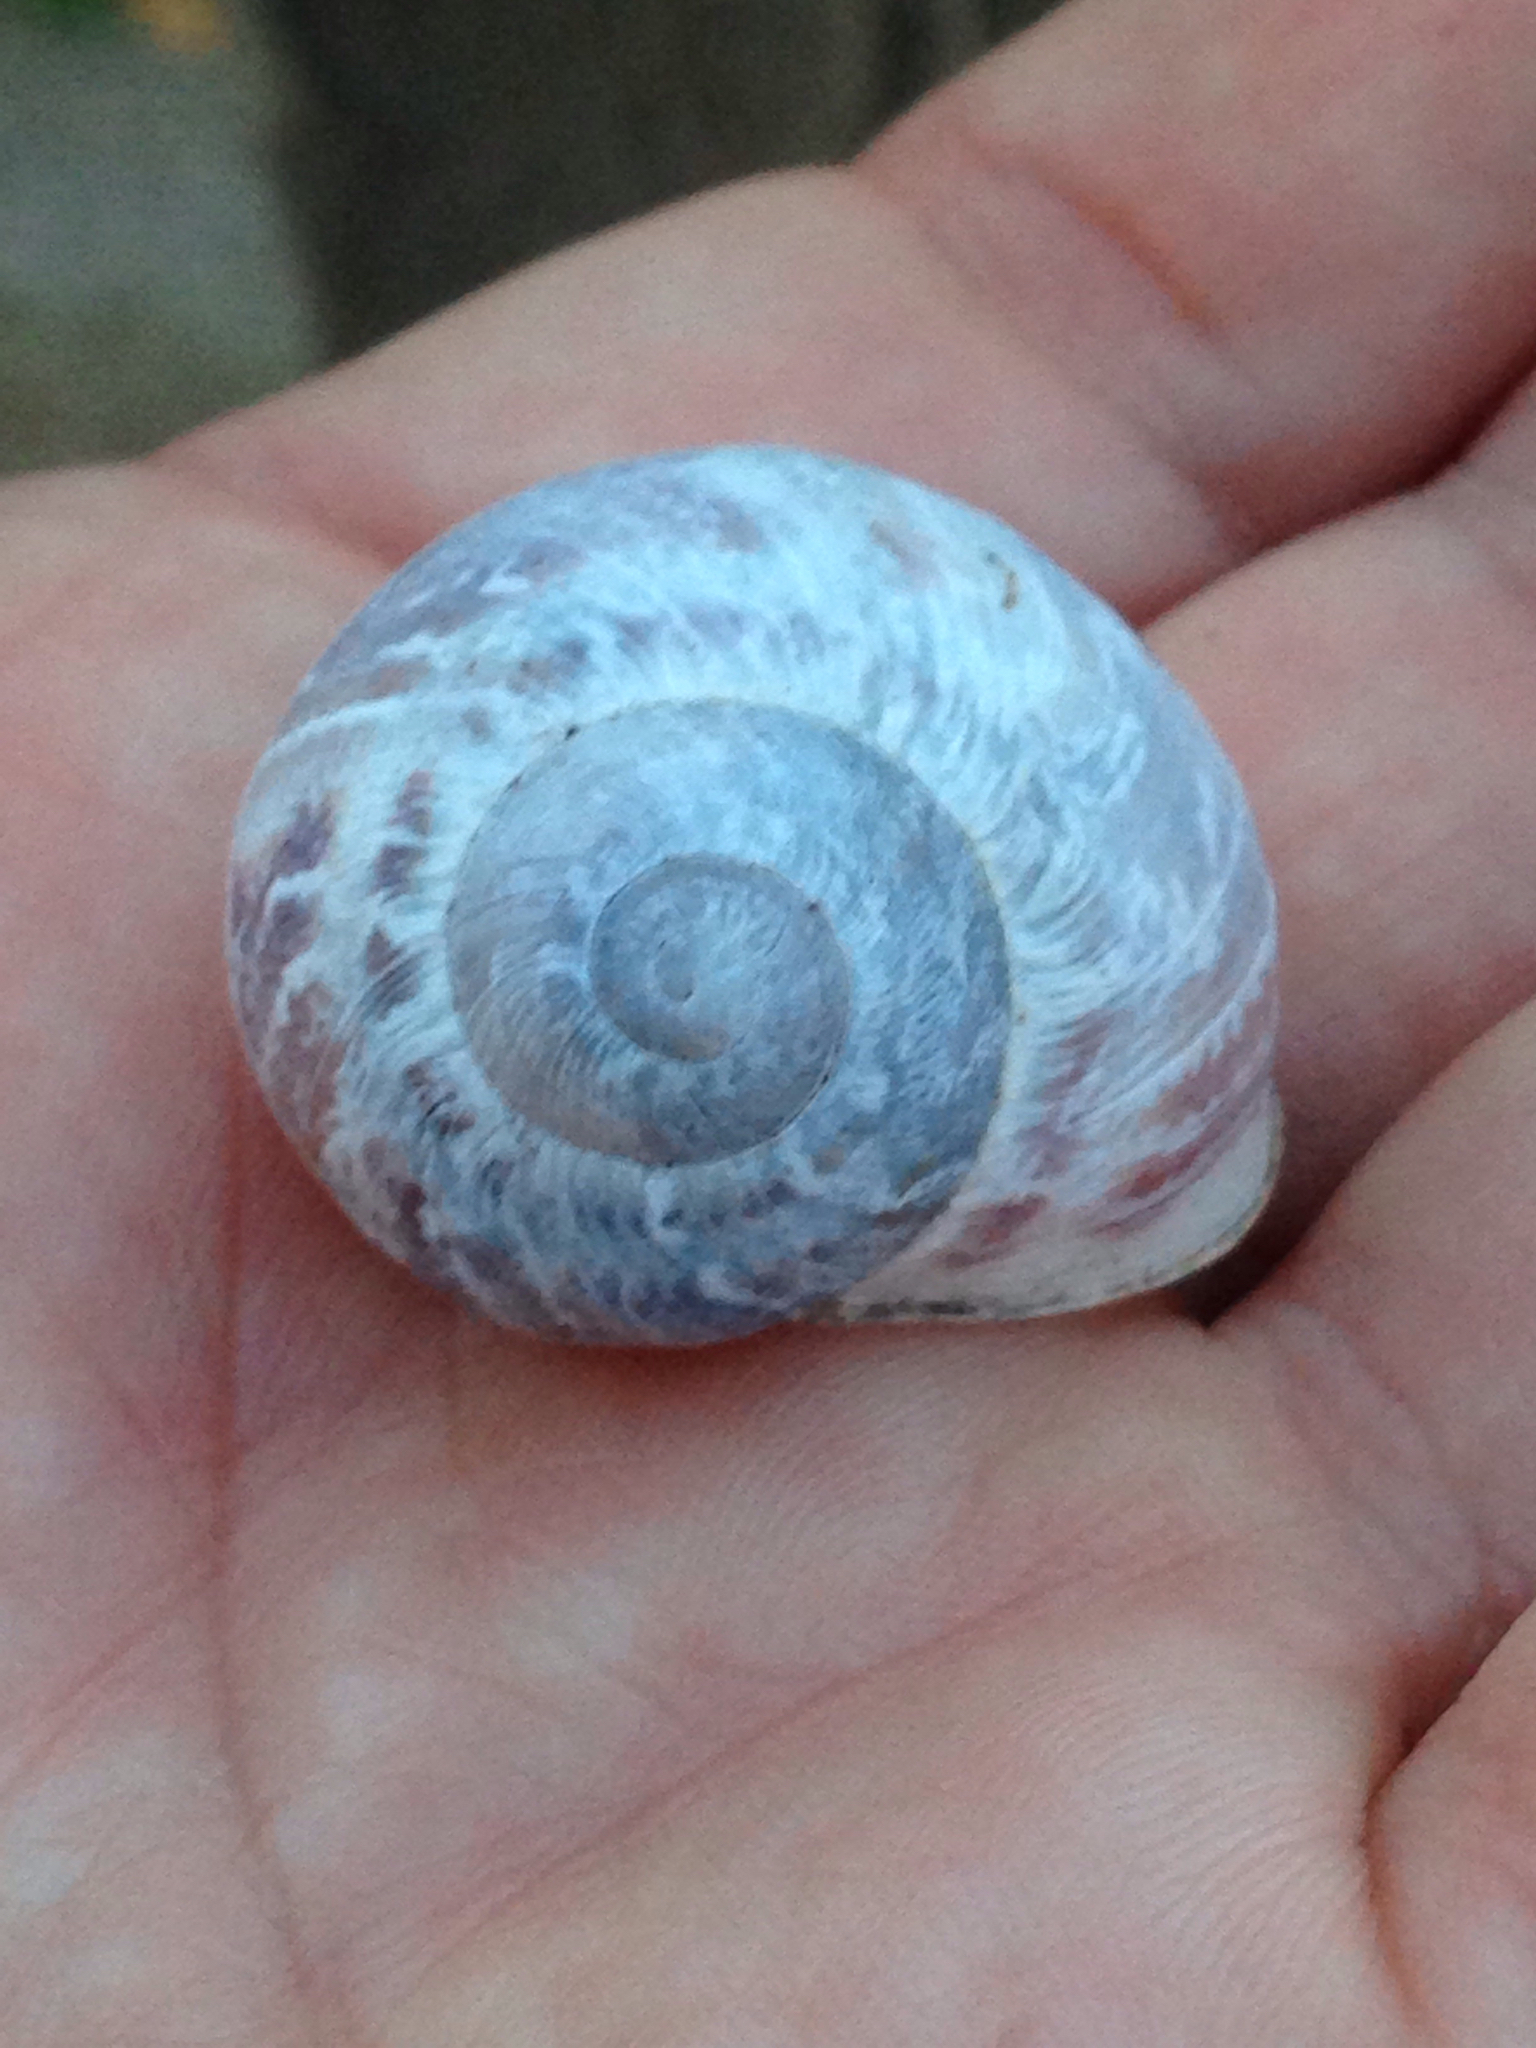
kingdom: Animalia
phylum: Mollusca
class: Gastropoda
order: Stylommatophora
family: Helicidae
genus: Cornu
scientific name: Cornu aspersum
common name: Brown garden snail
